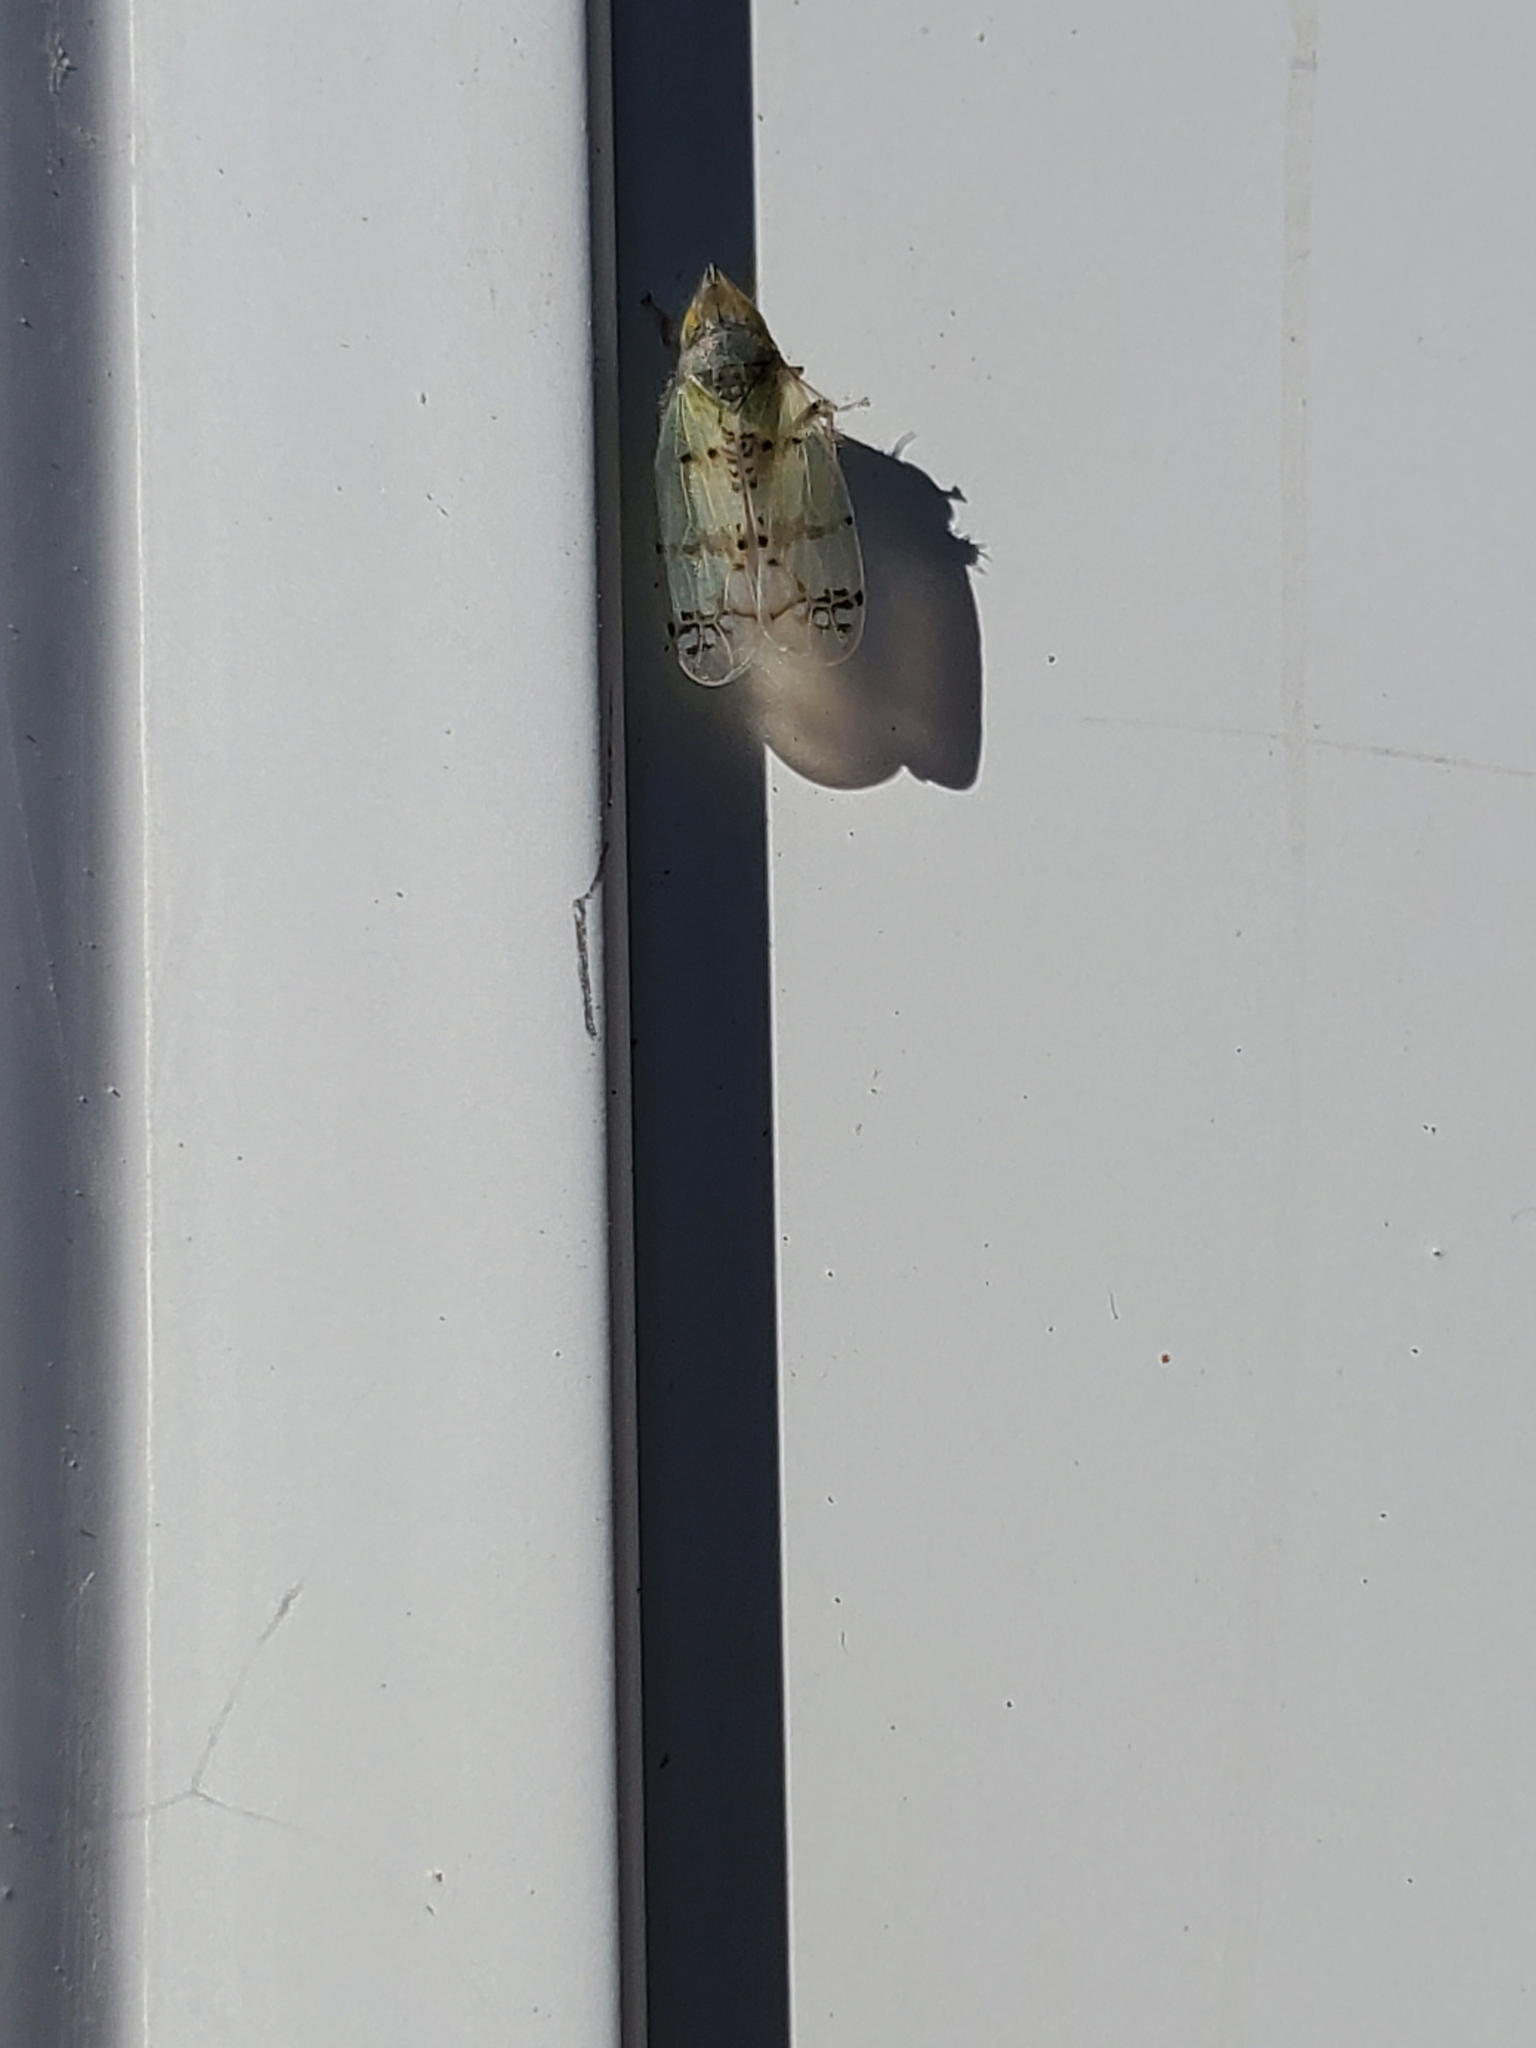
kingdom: Animalia
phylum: Arthropoda
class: Insecta
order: Hemiptera
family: Cicadellidae
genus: Japananus
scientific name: Japananus hyalinus
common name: The japanese maple leafhopper
